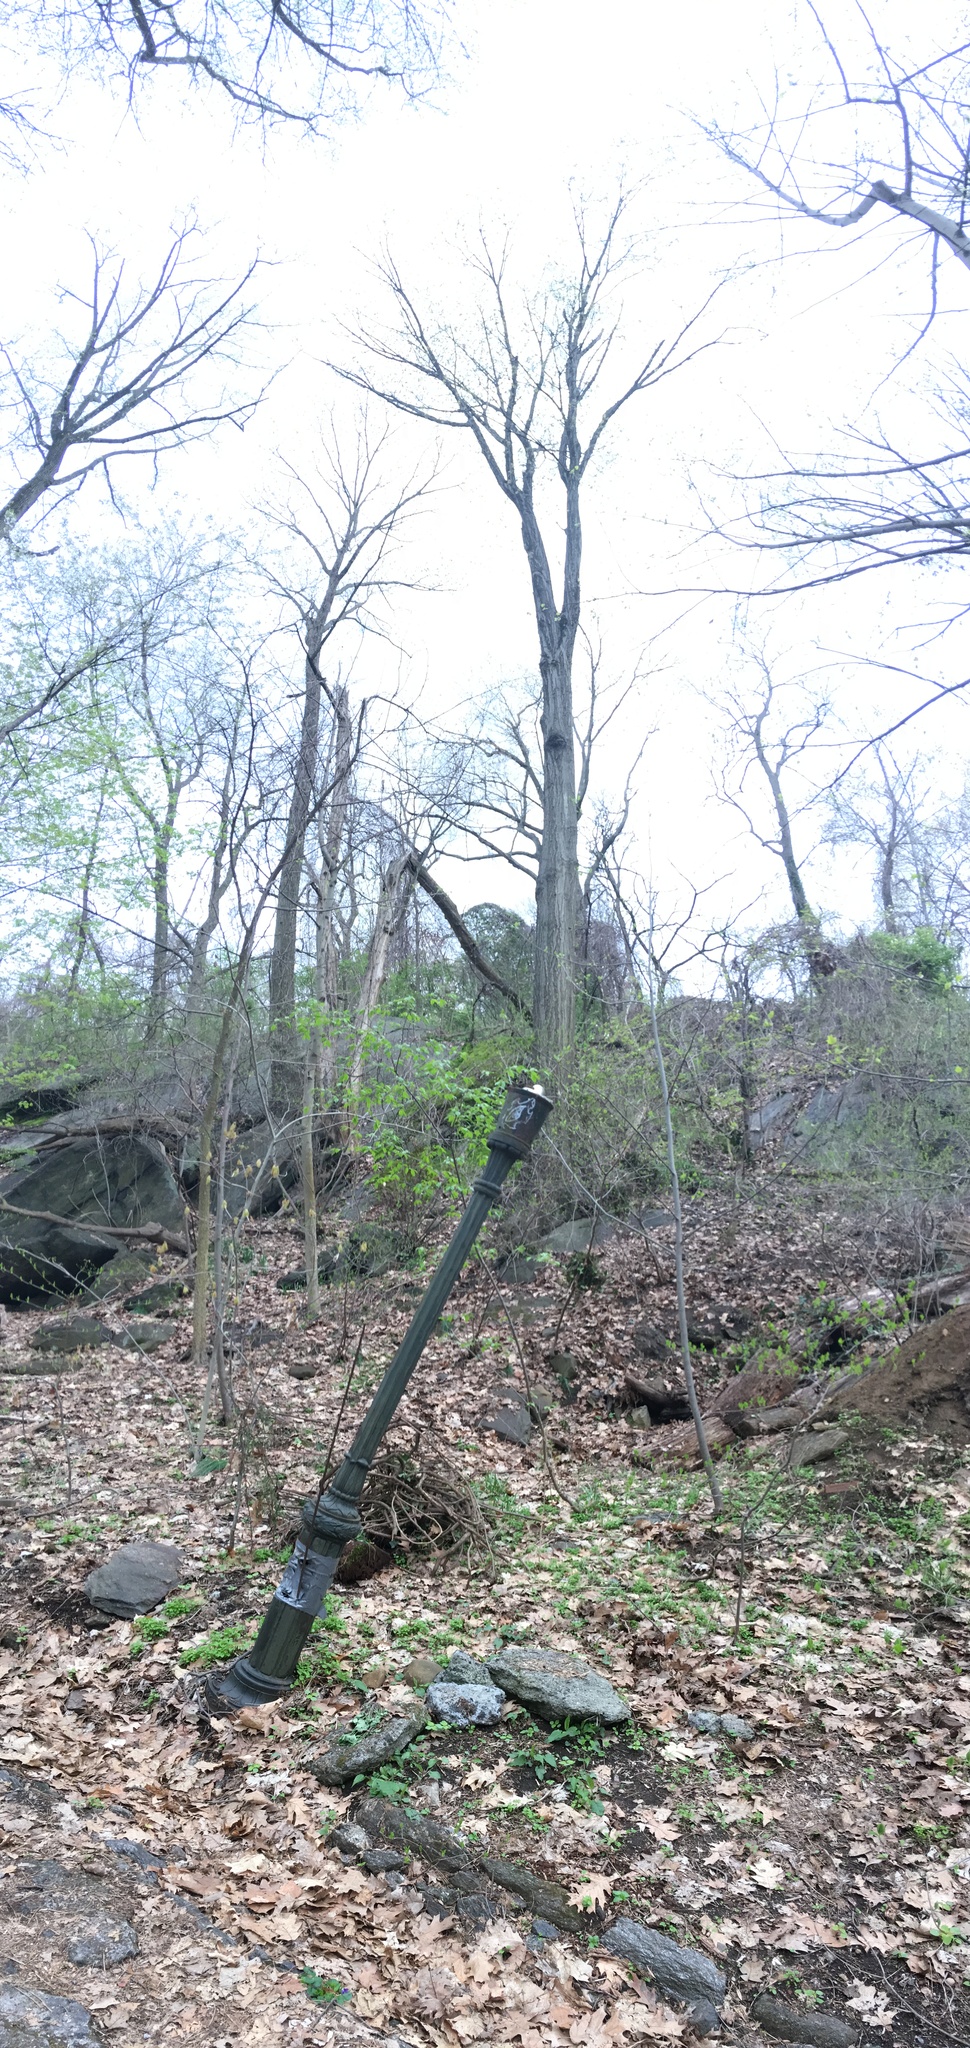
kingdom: Plantae
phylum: Tracheophyta
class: Magnoliopsida
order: Vitales
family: Vitaceae
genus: Ampelopsis
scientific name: Ampelopsis glandulosa
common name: Amur peppervine
